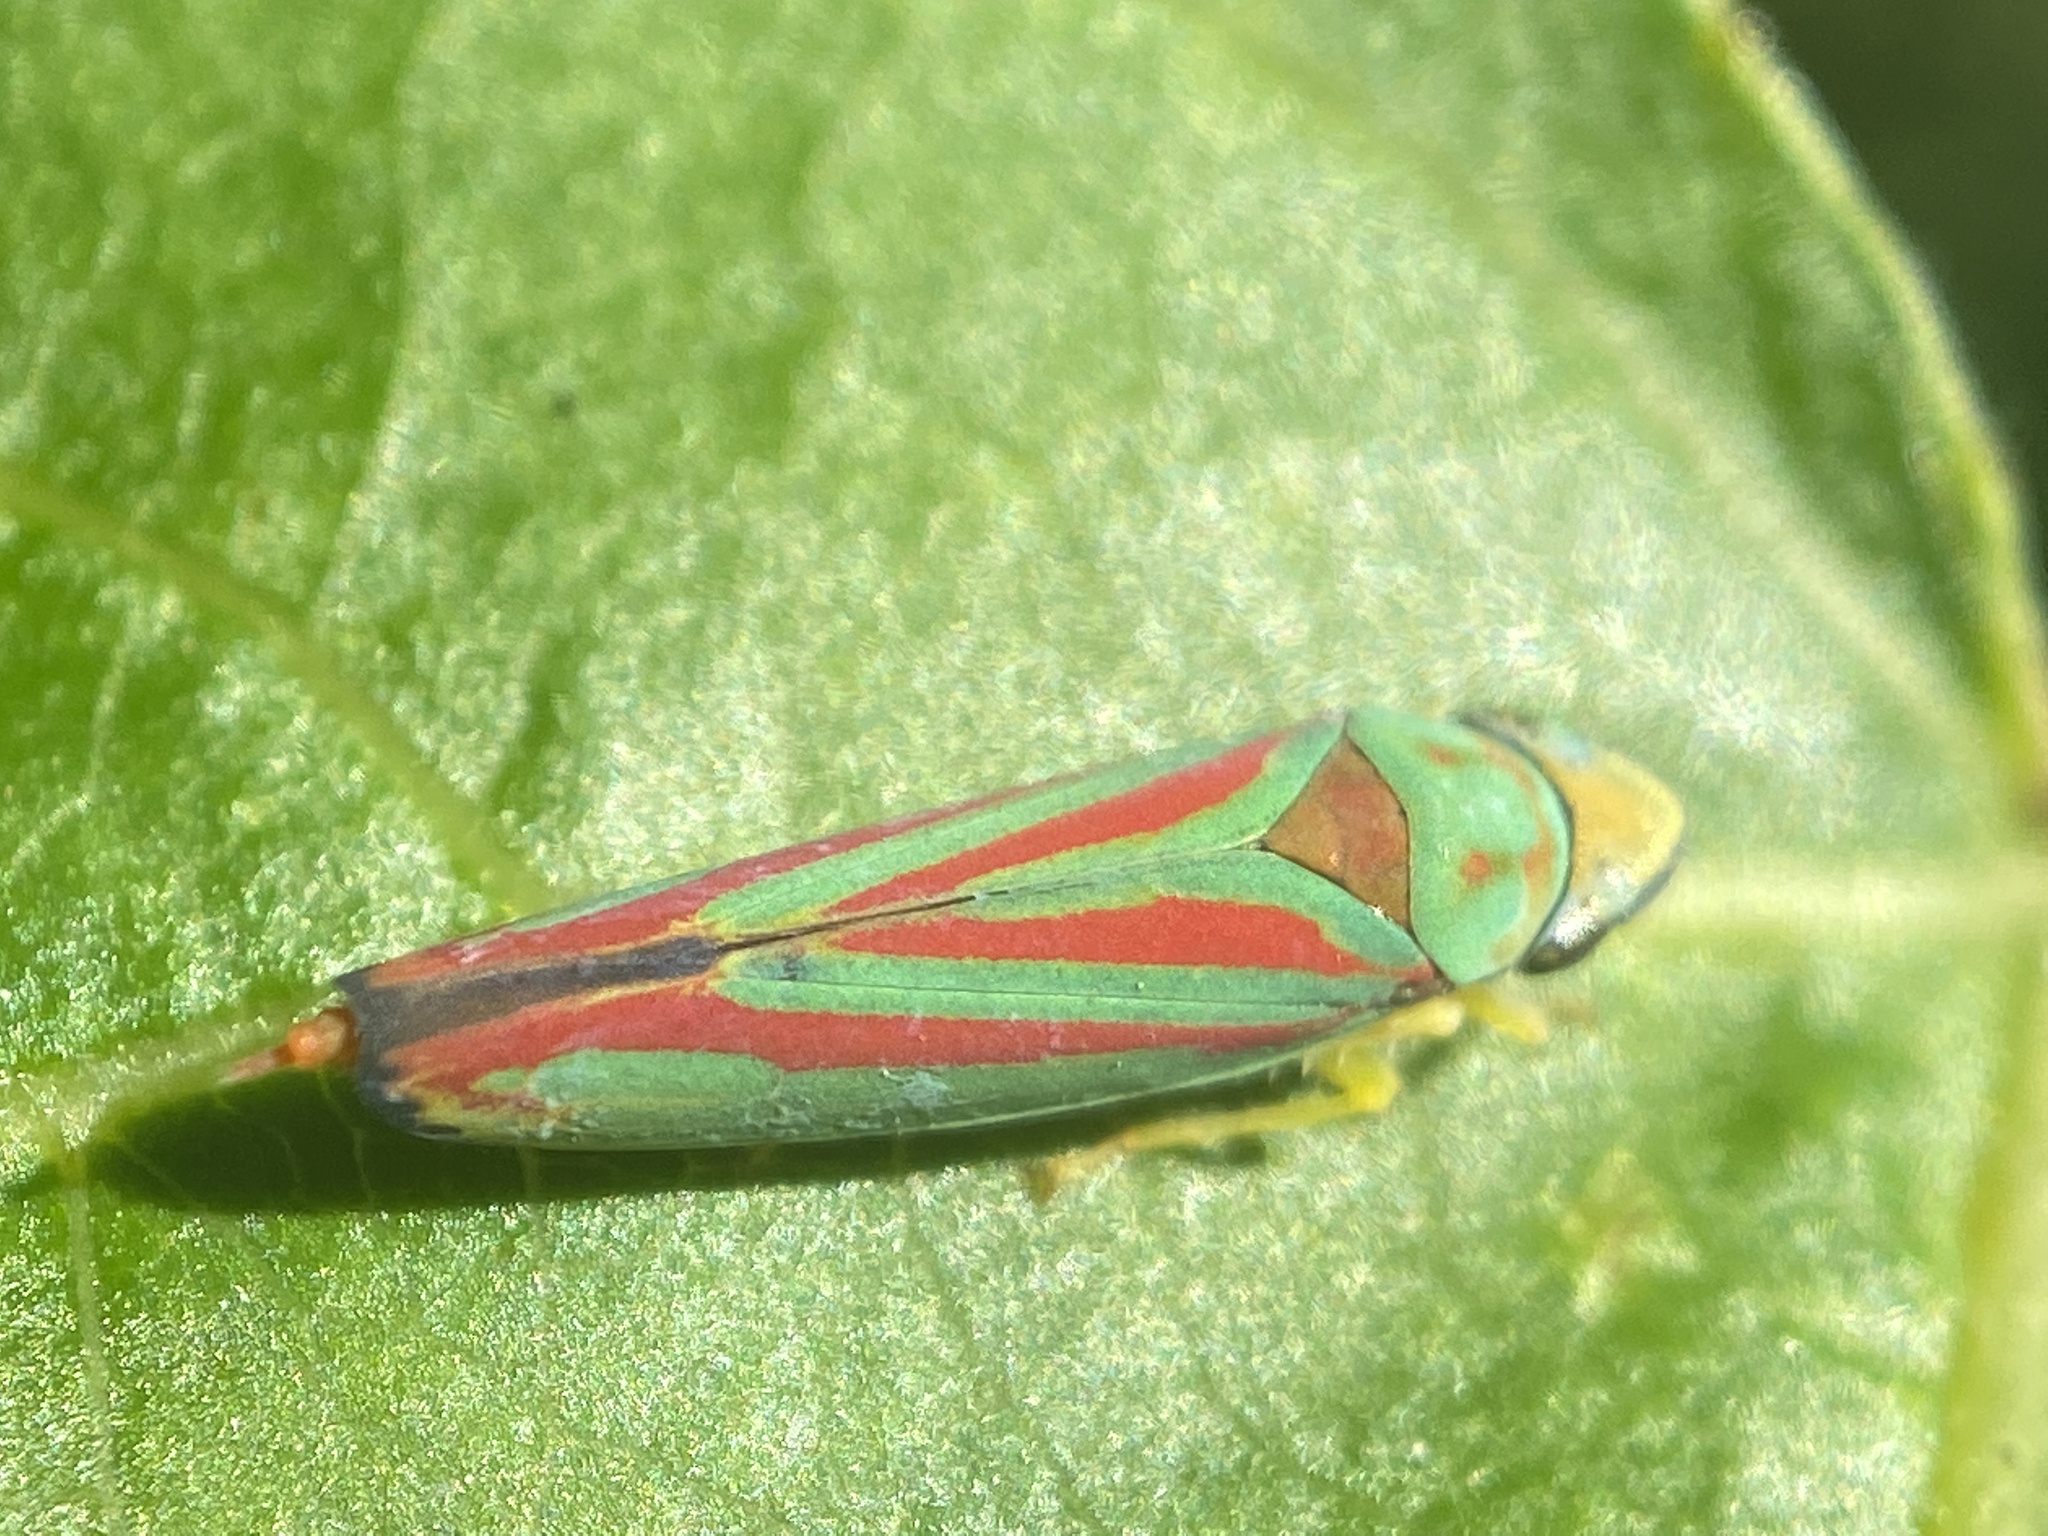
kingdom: Animalia
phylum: Arthropoda
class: Insecta
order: Hemiptera
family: Cicadellidae
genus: Graphocephala
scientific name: Graphocephala coccinea
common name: Candy-striped leafhopper
